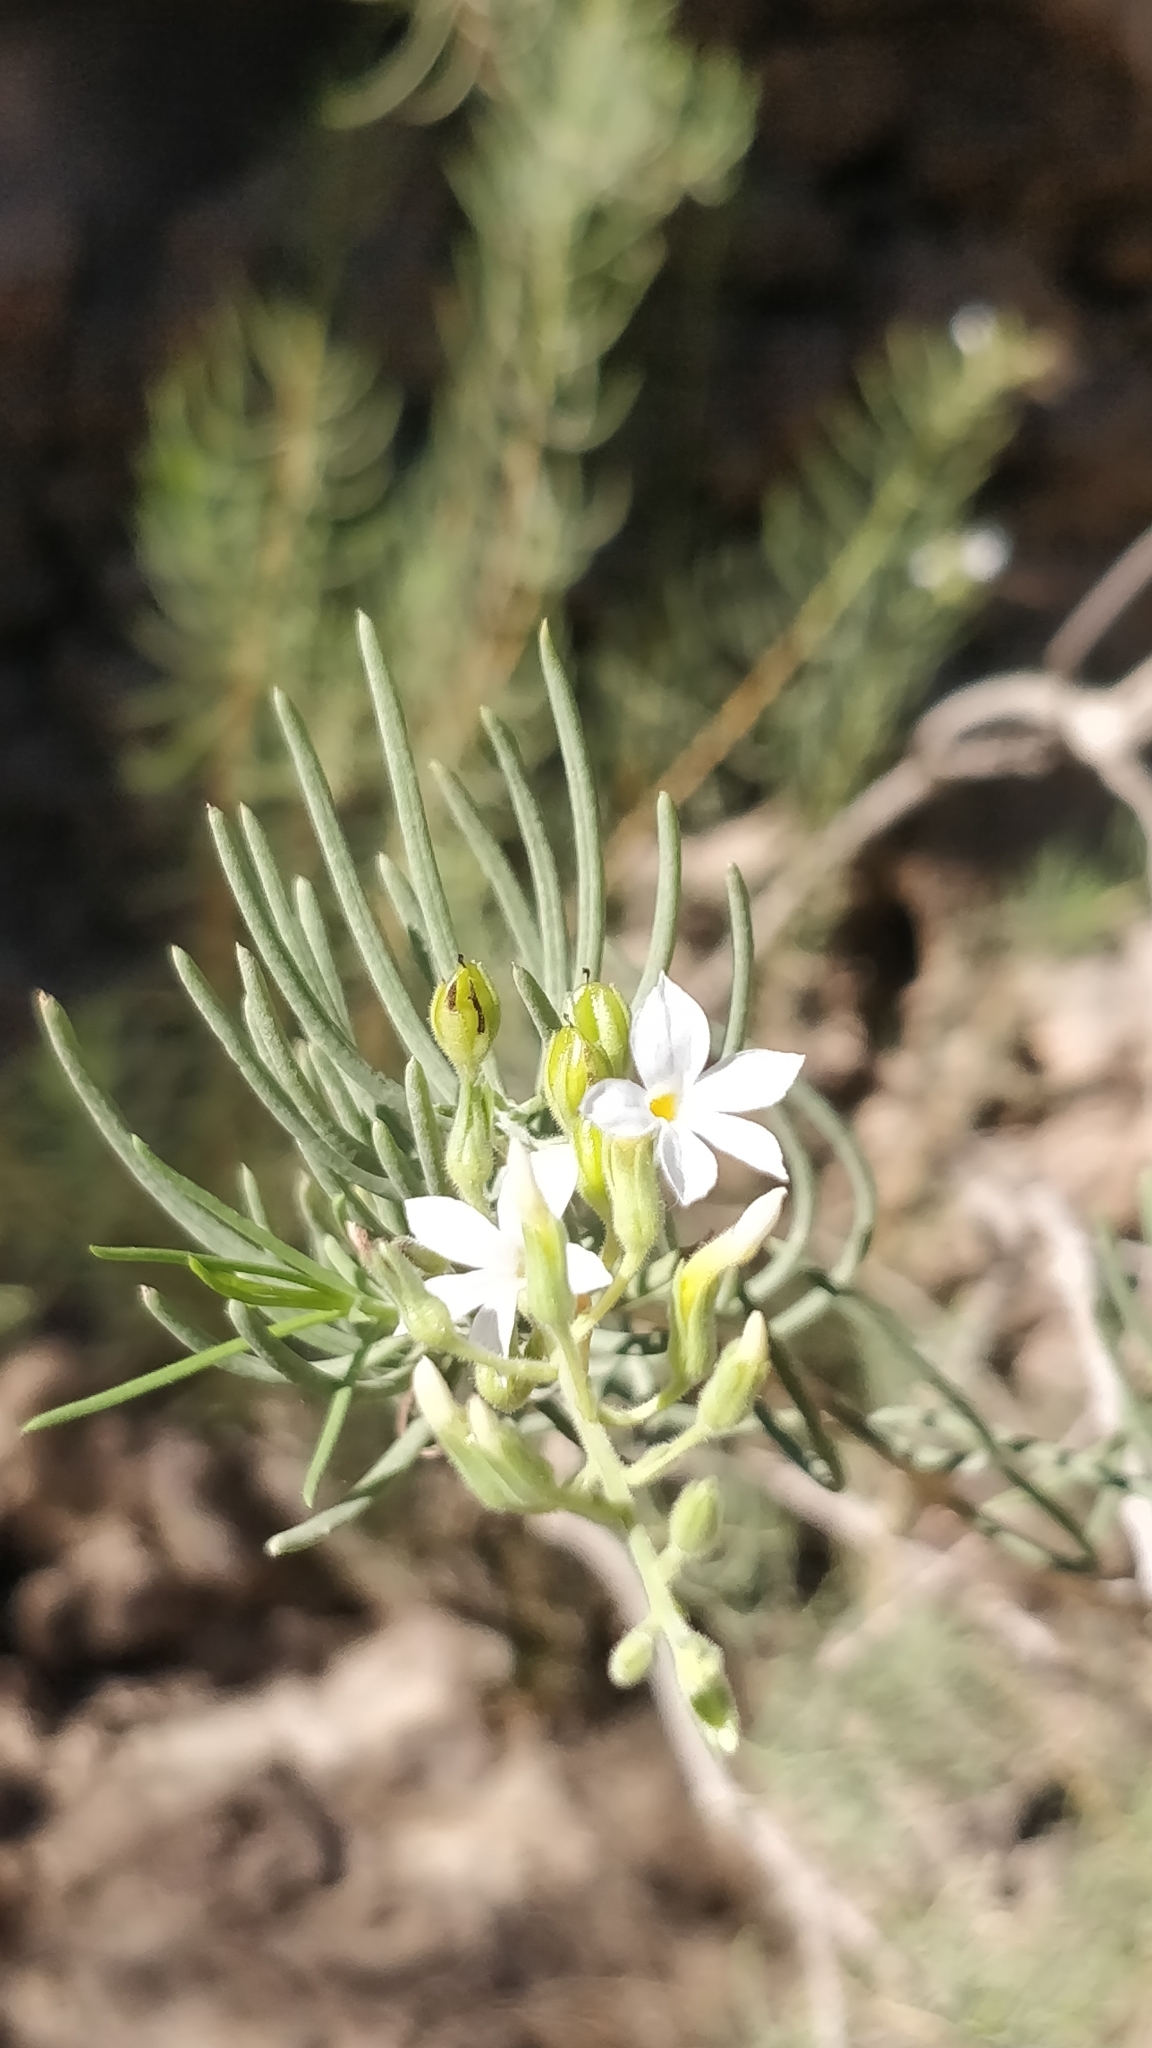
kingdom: Plantae
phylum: Tracheophyta
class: Magnoliopsida
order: Lamiales
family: Plantaginaceae
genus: Campylanthus
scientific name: Campylanthus salsoloides
